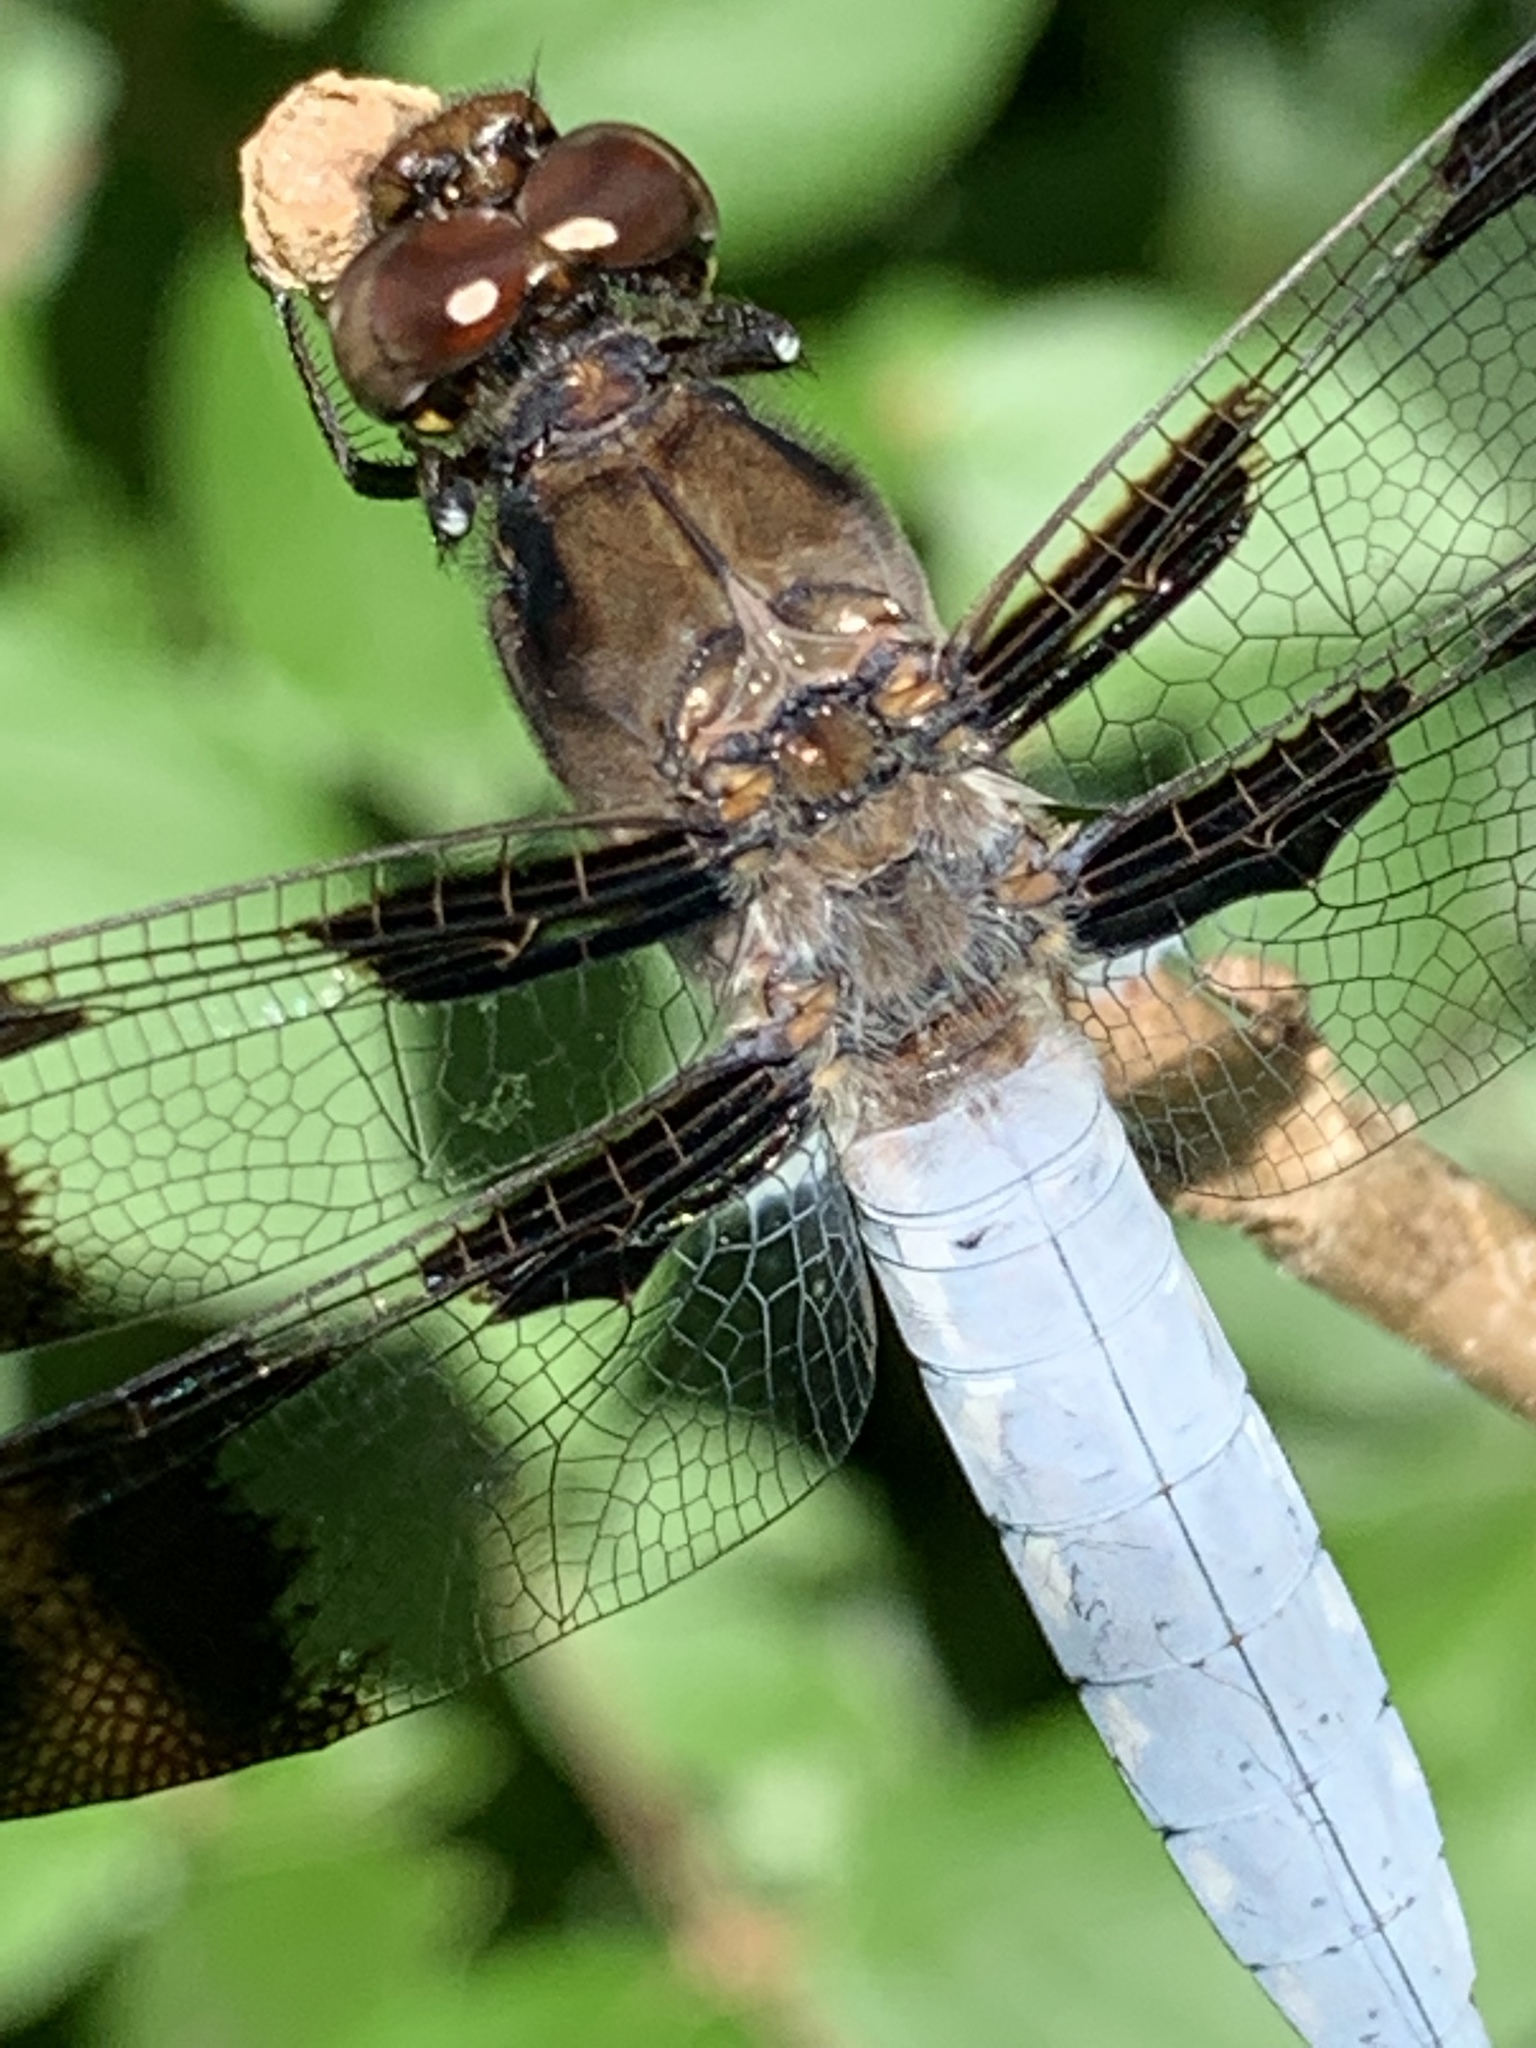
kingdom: Animalia
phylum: Arthropoda
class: Insecta
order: Odonata
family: Libellulidae
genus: Plathemis
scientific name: Plathemis lydia
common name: Common whitetail
